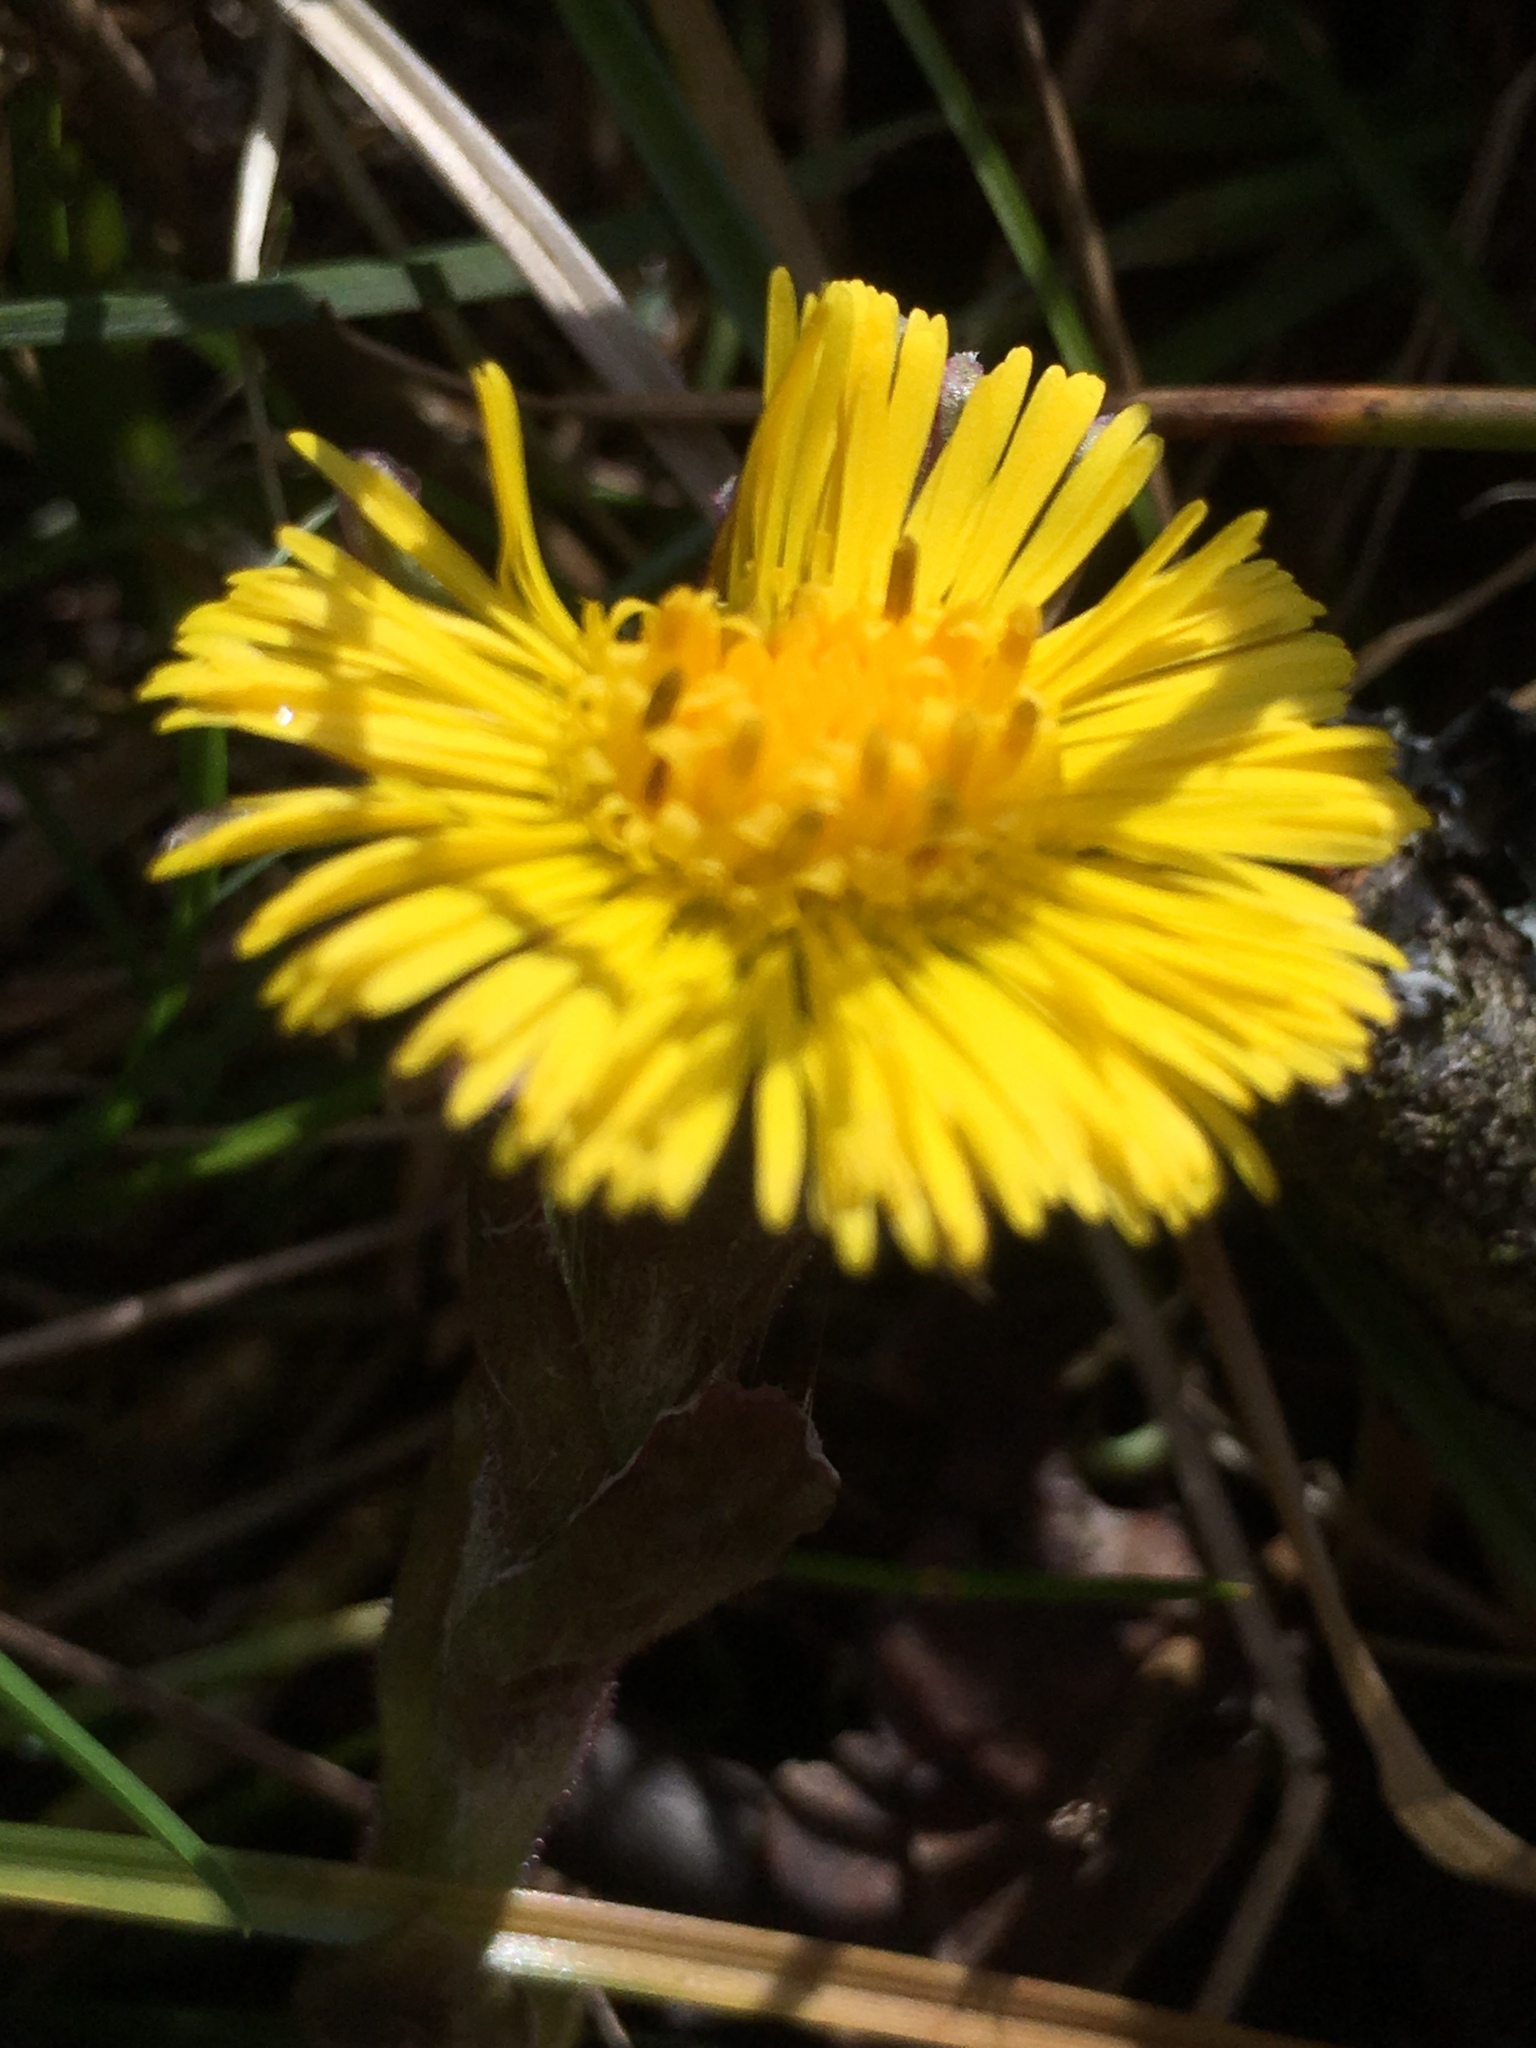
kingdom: Plantae
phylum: Tracheophyta
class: Magnoliopsida
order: Asterales
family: Asteraceae
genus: Tussilago
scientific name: Tussilago farfara
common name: Coltsfoot
